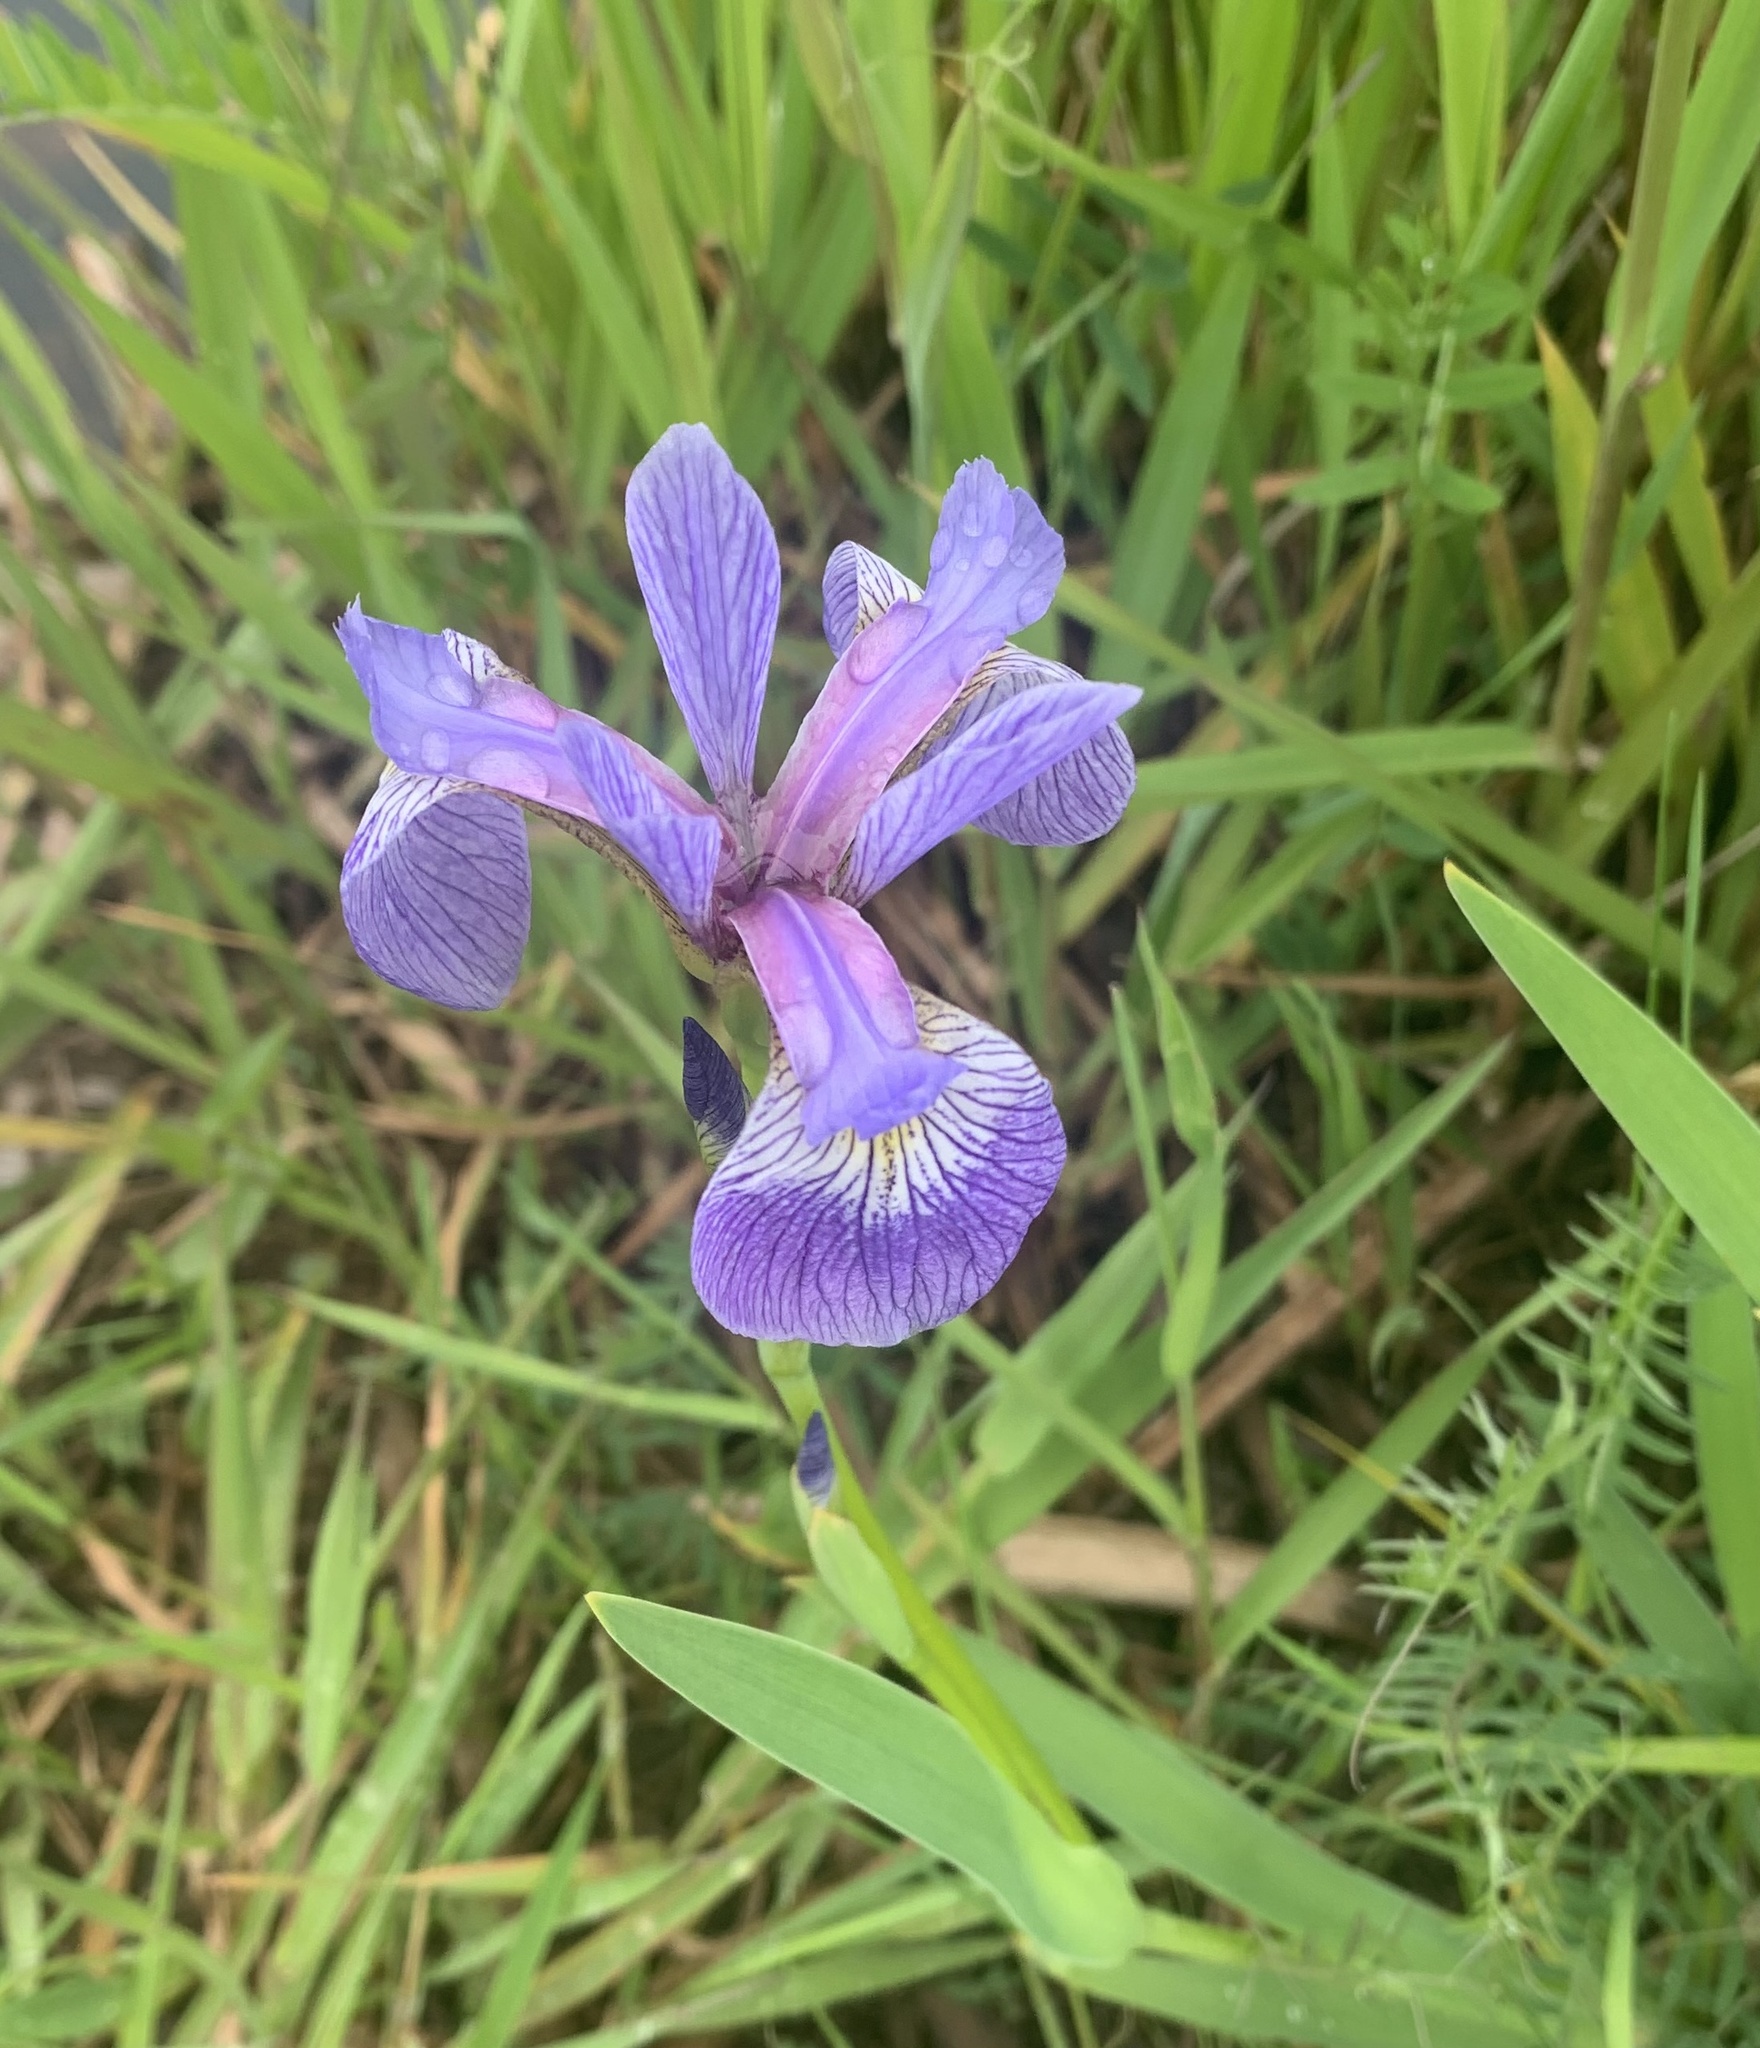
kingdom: Plantae
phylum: Tracheophyta
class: Liliopsida
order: Asparagales
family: Iridaceae
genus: Iris
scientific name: Iris versicolor
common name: Purple iris
